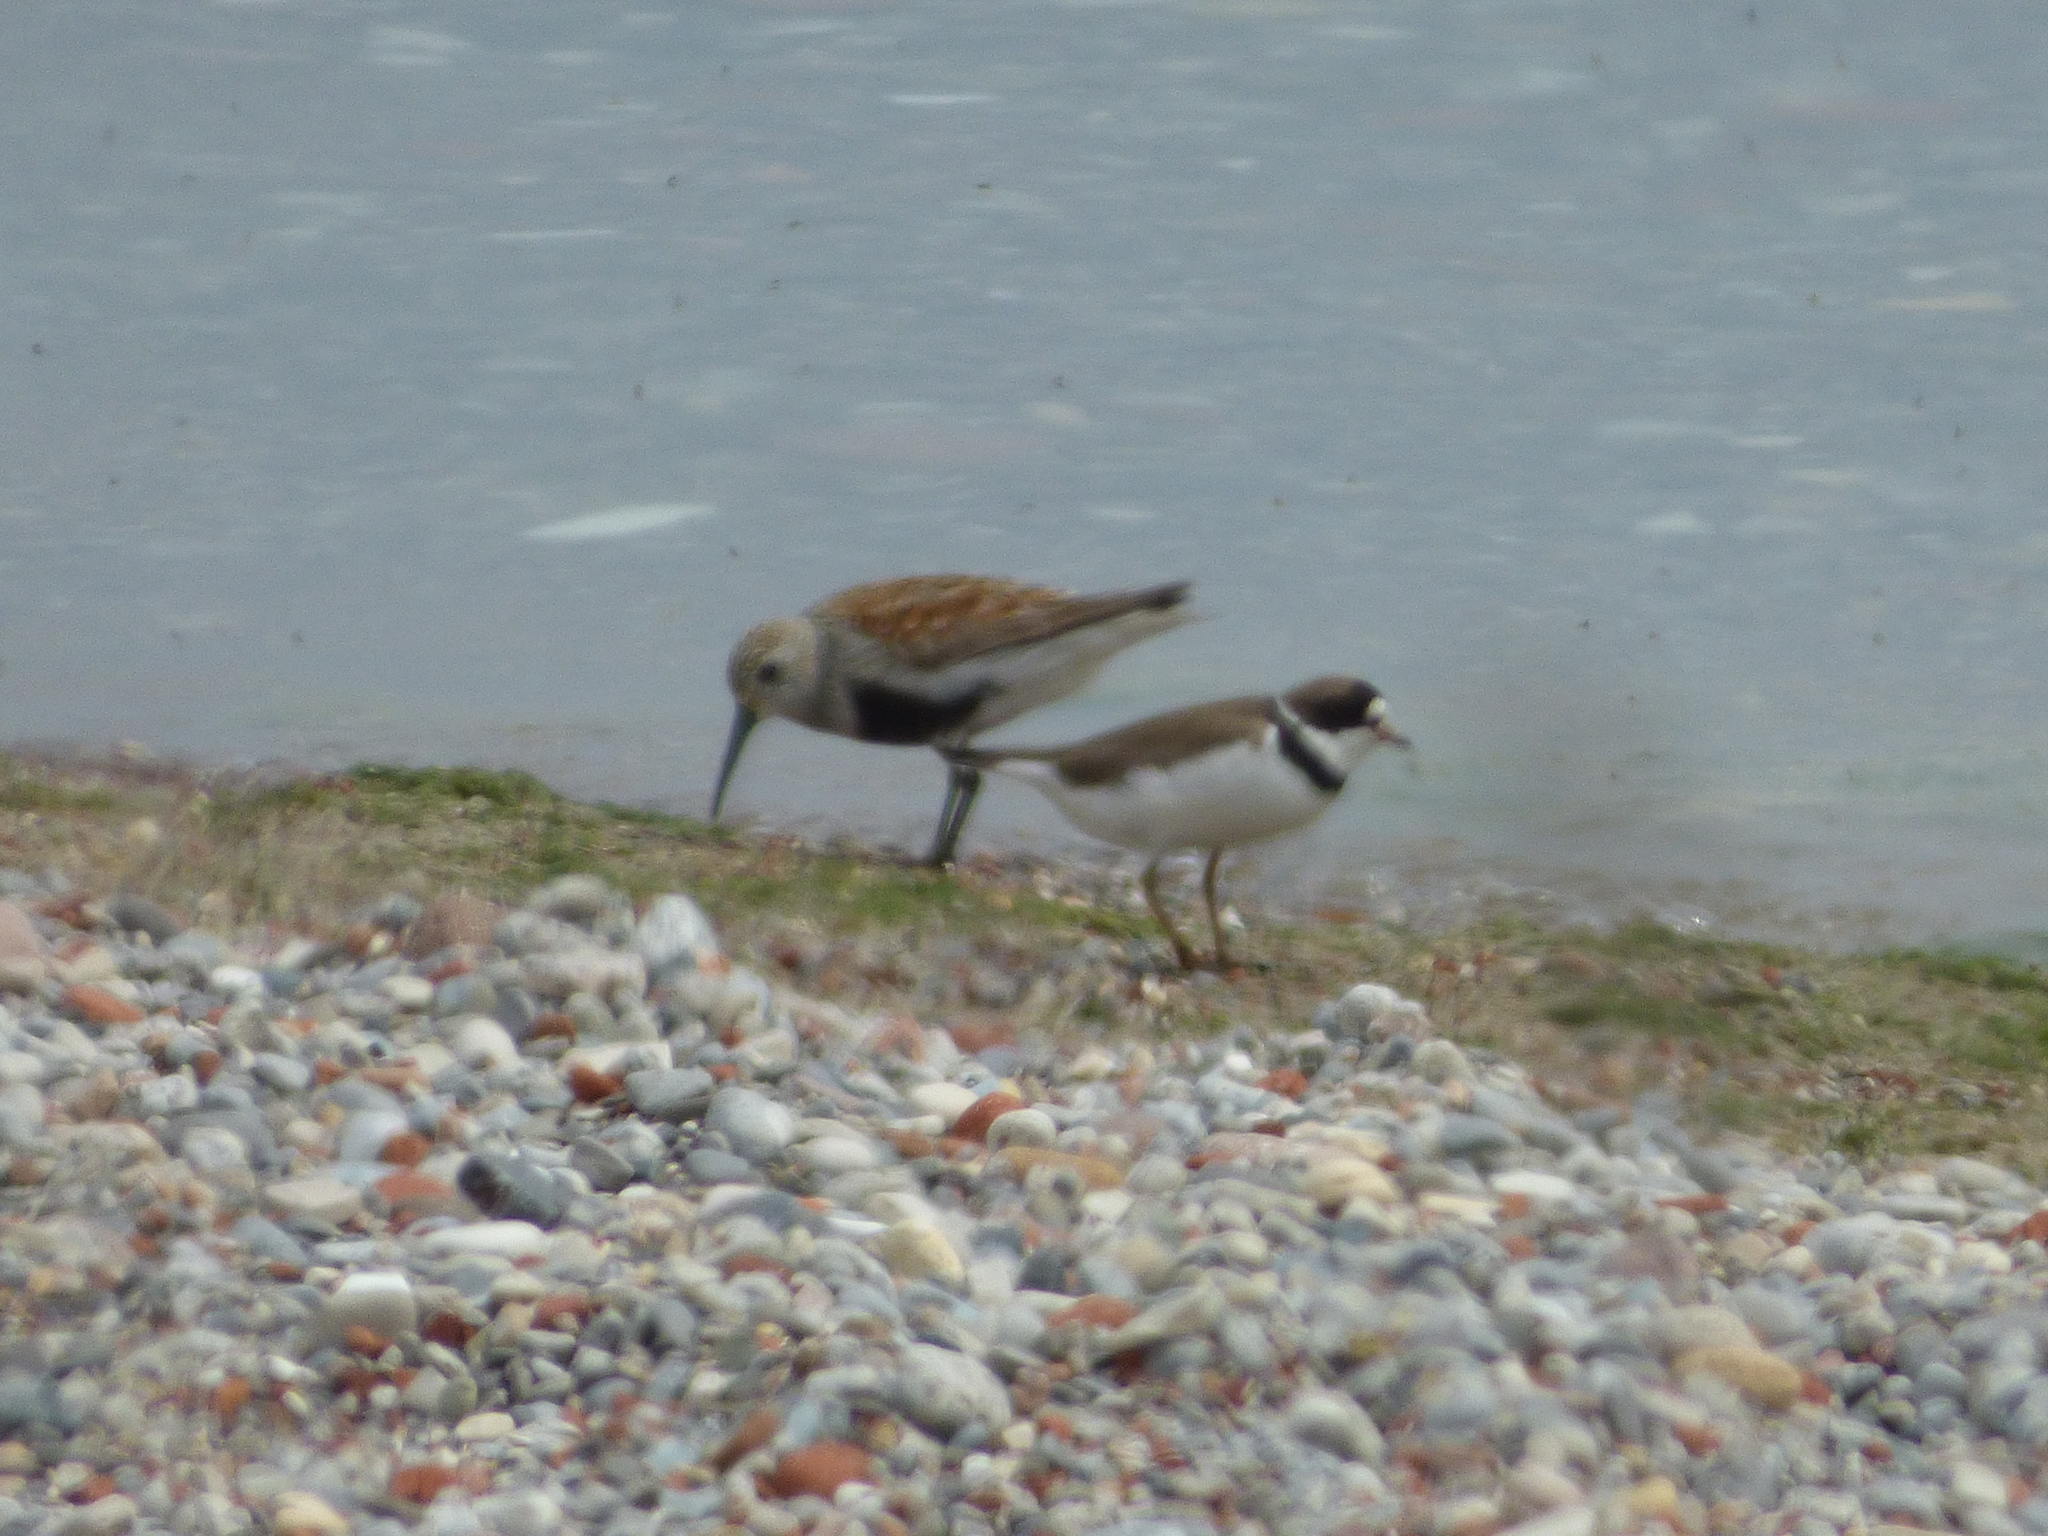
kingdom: Animalia
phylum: Chordata
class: Aves
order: Charadriiformes
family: Charadriidae
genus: Charadrius
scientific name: Charadrius semipalmatus
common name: Semipalmated plover
